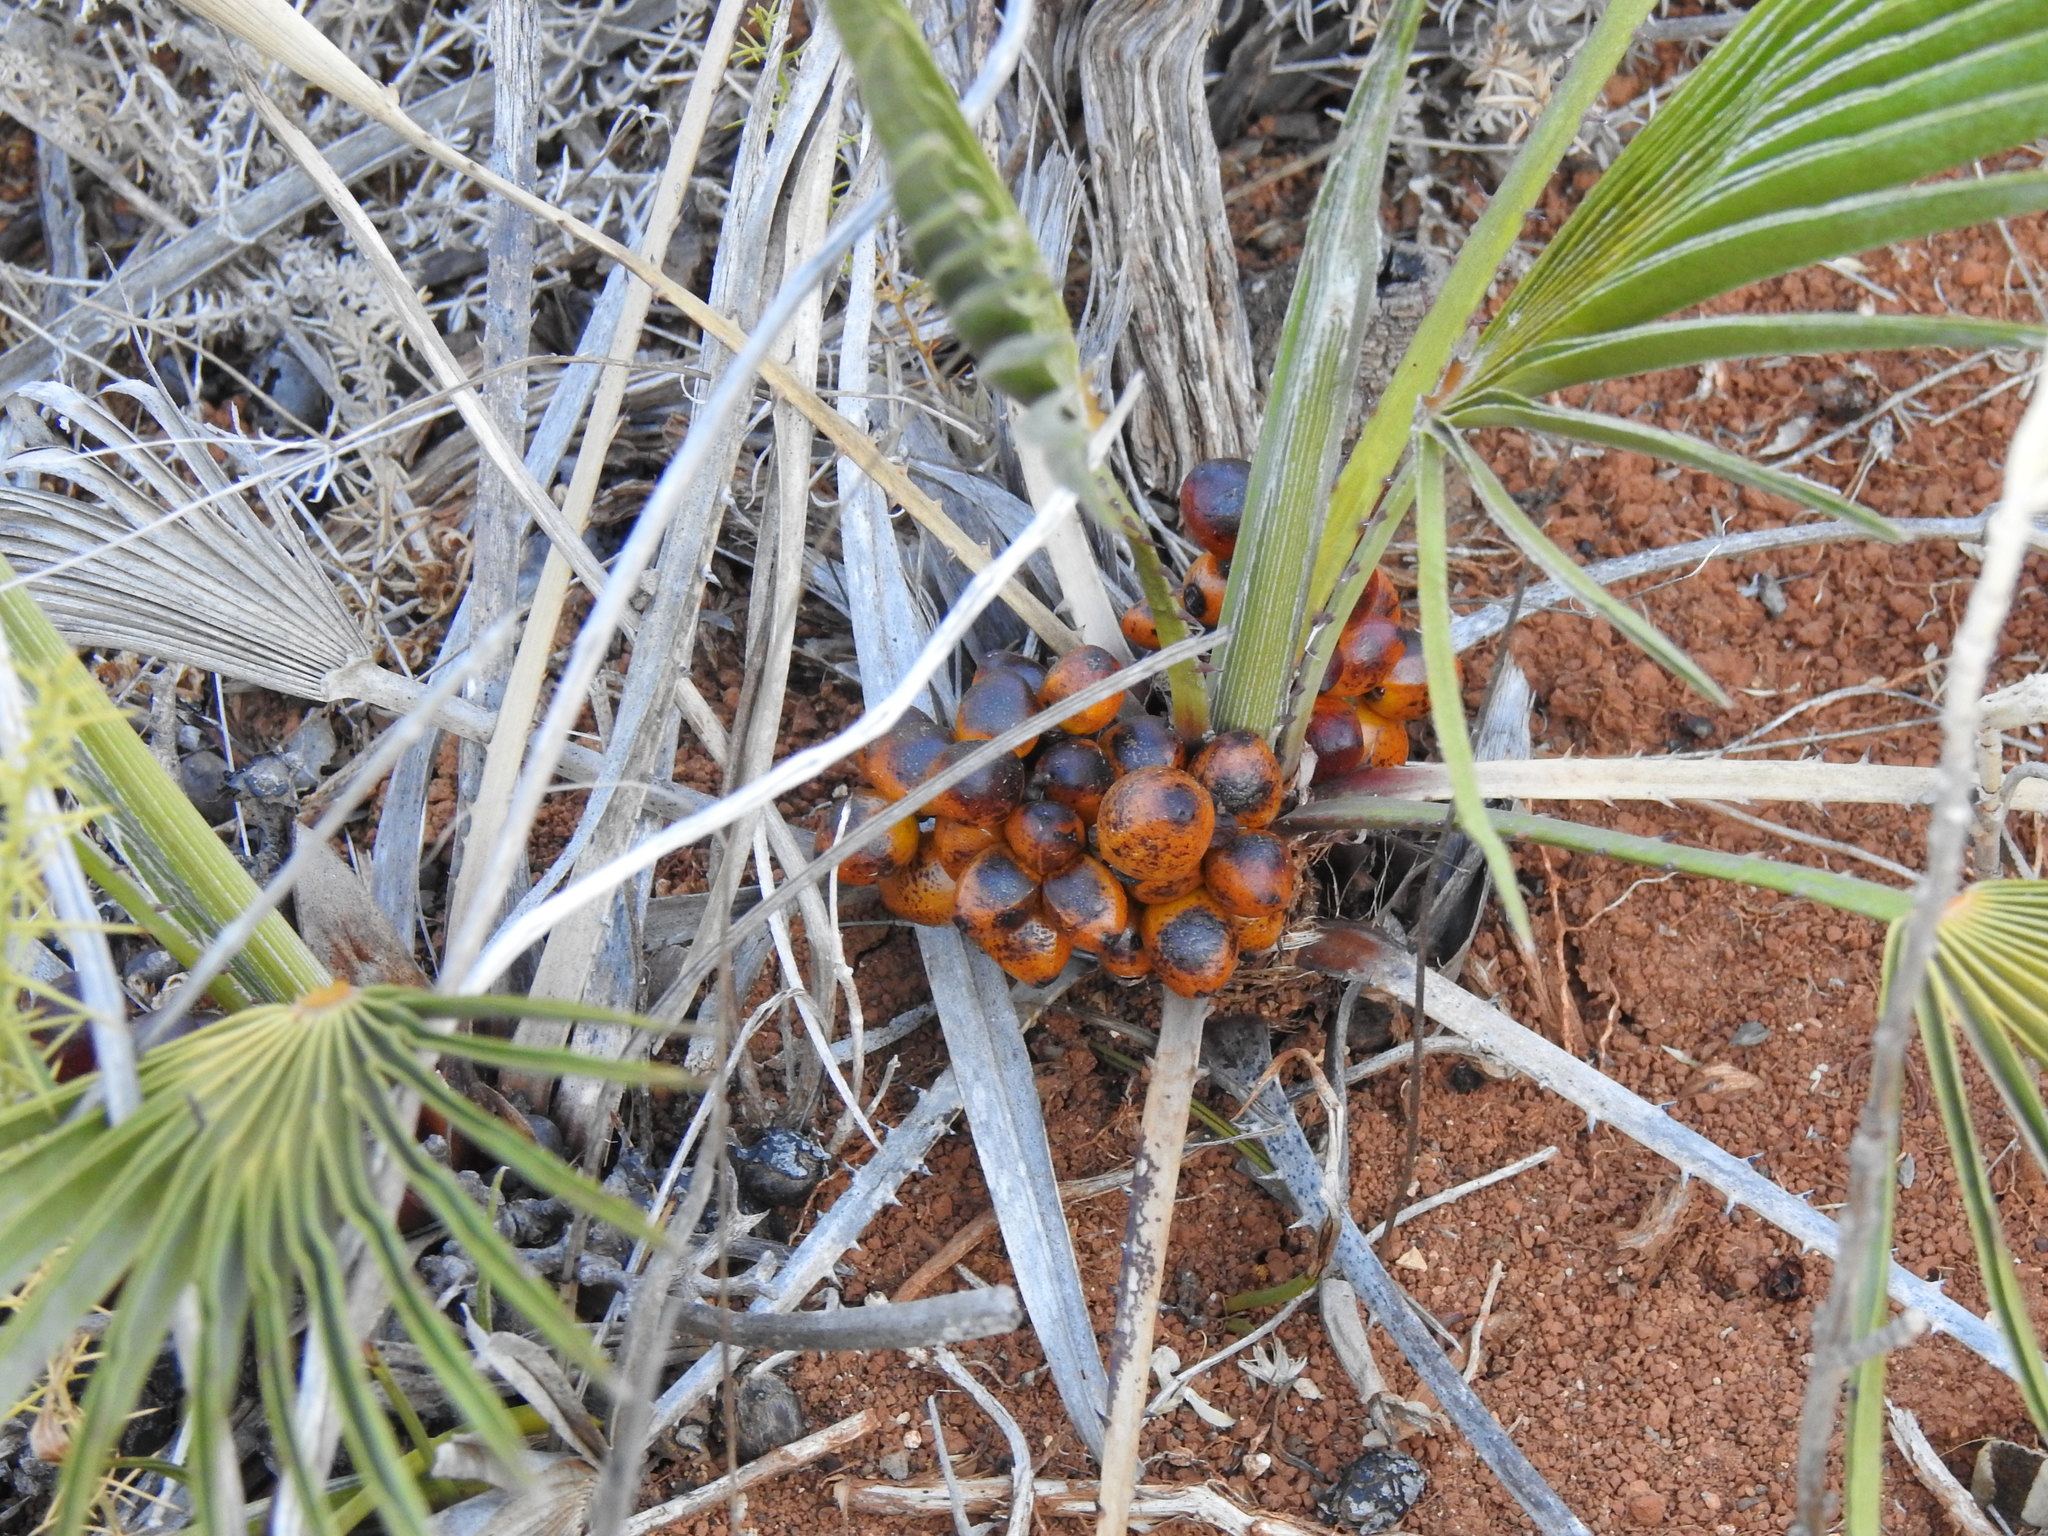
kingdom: Plantae
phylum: Tracheophyta
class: Liliopsida
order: Arecales
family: Arecaceae
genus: Chamaerops
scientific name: Chamaerops humilis
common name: Dwarf fan palm
